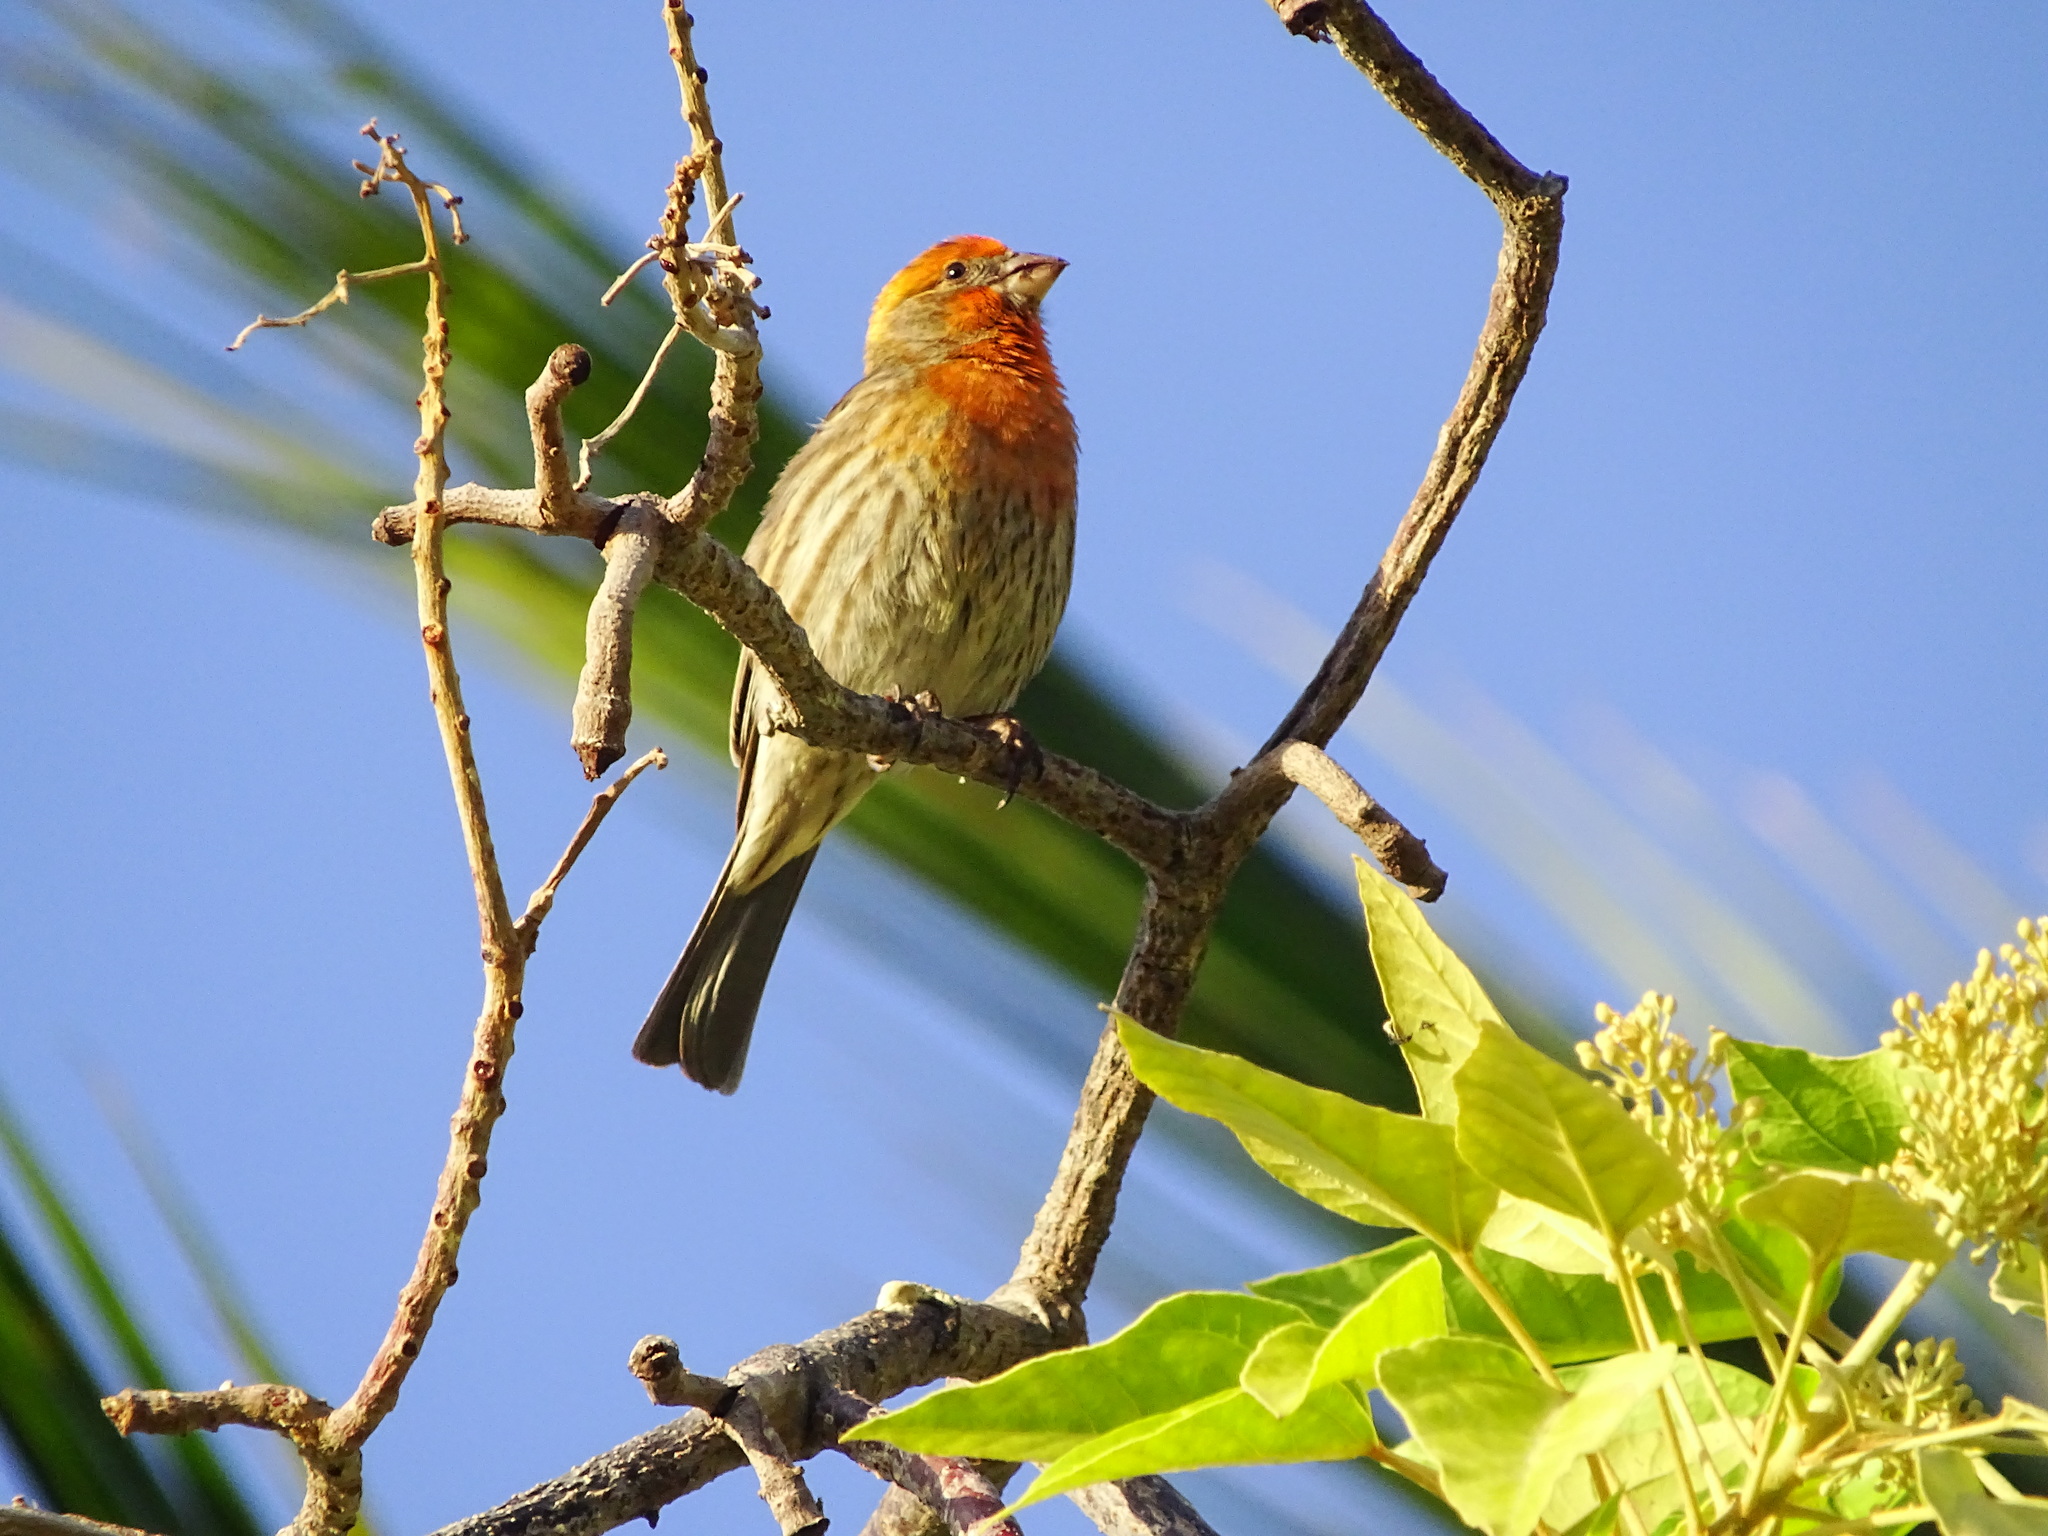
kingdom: Animalia
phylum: Chordata
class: Aves
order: Passeriformes
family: Fringillidae
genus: Haemorhous
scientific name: Haemorhous mexicanus
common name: House finch
